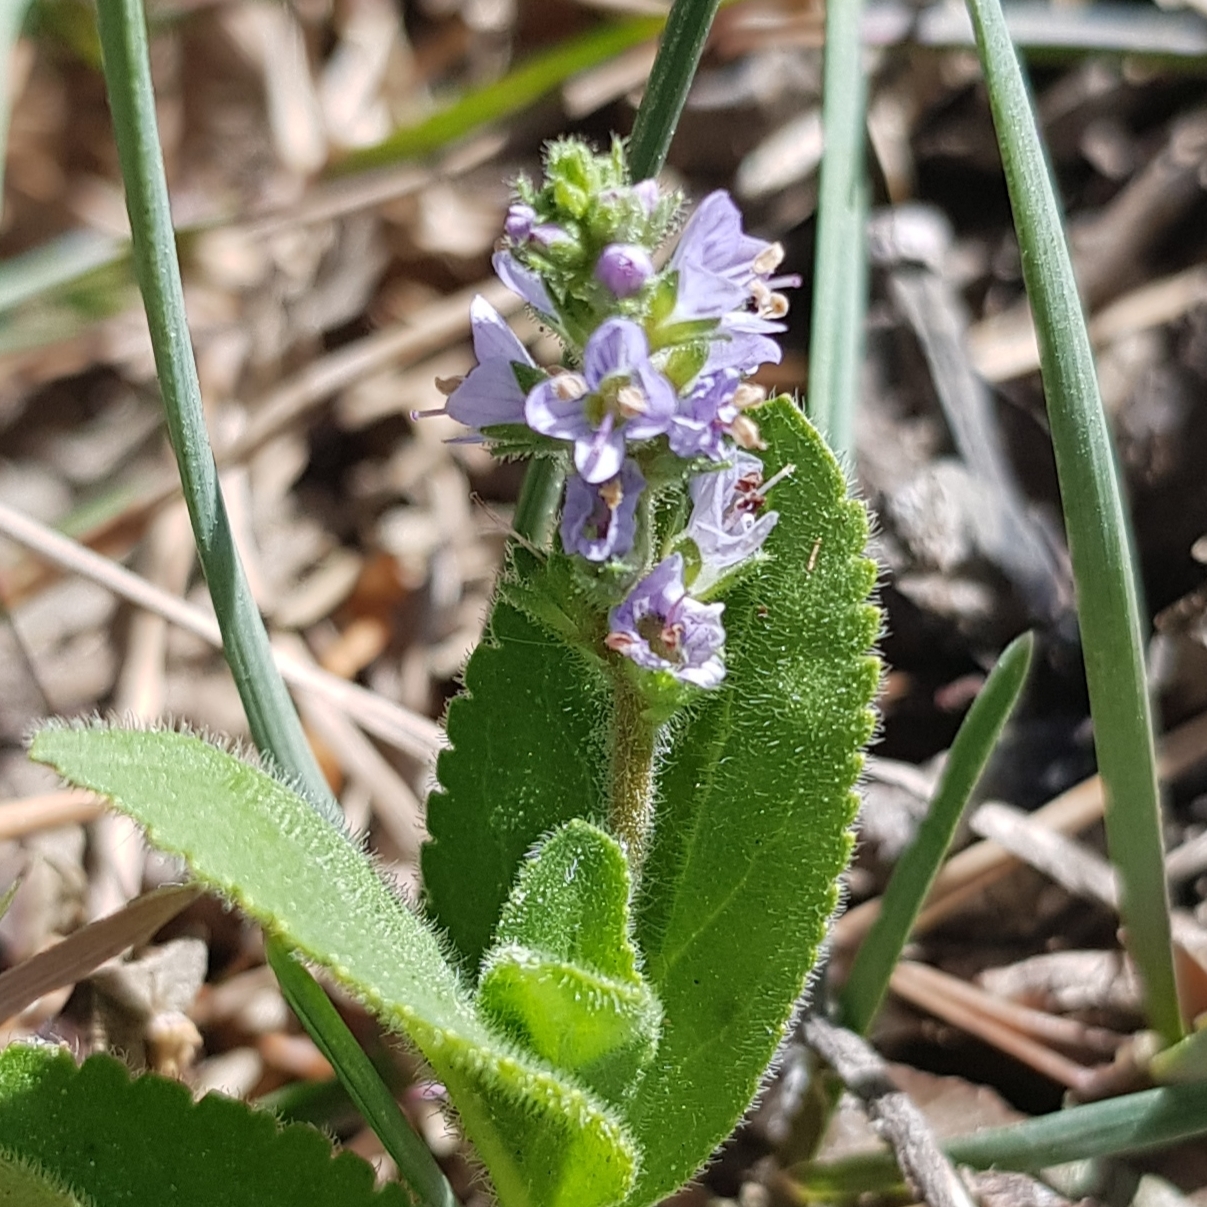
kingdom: Plantae
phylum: Tracheophyta
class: Magnoliopsida
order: Lamiales
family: Plantaginaceae
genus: Veronica
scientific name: Veronica officinalis
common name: Common speedwell
